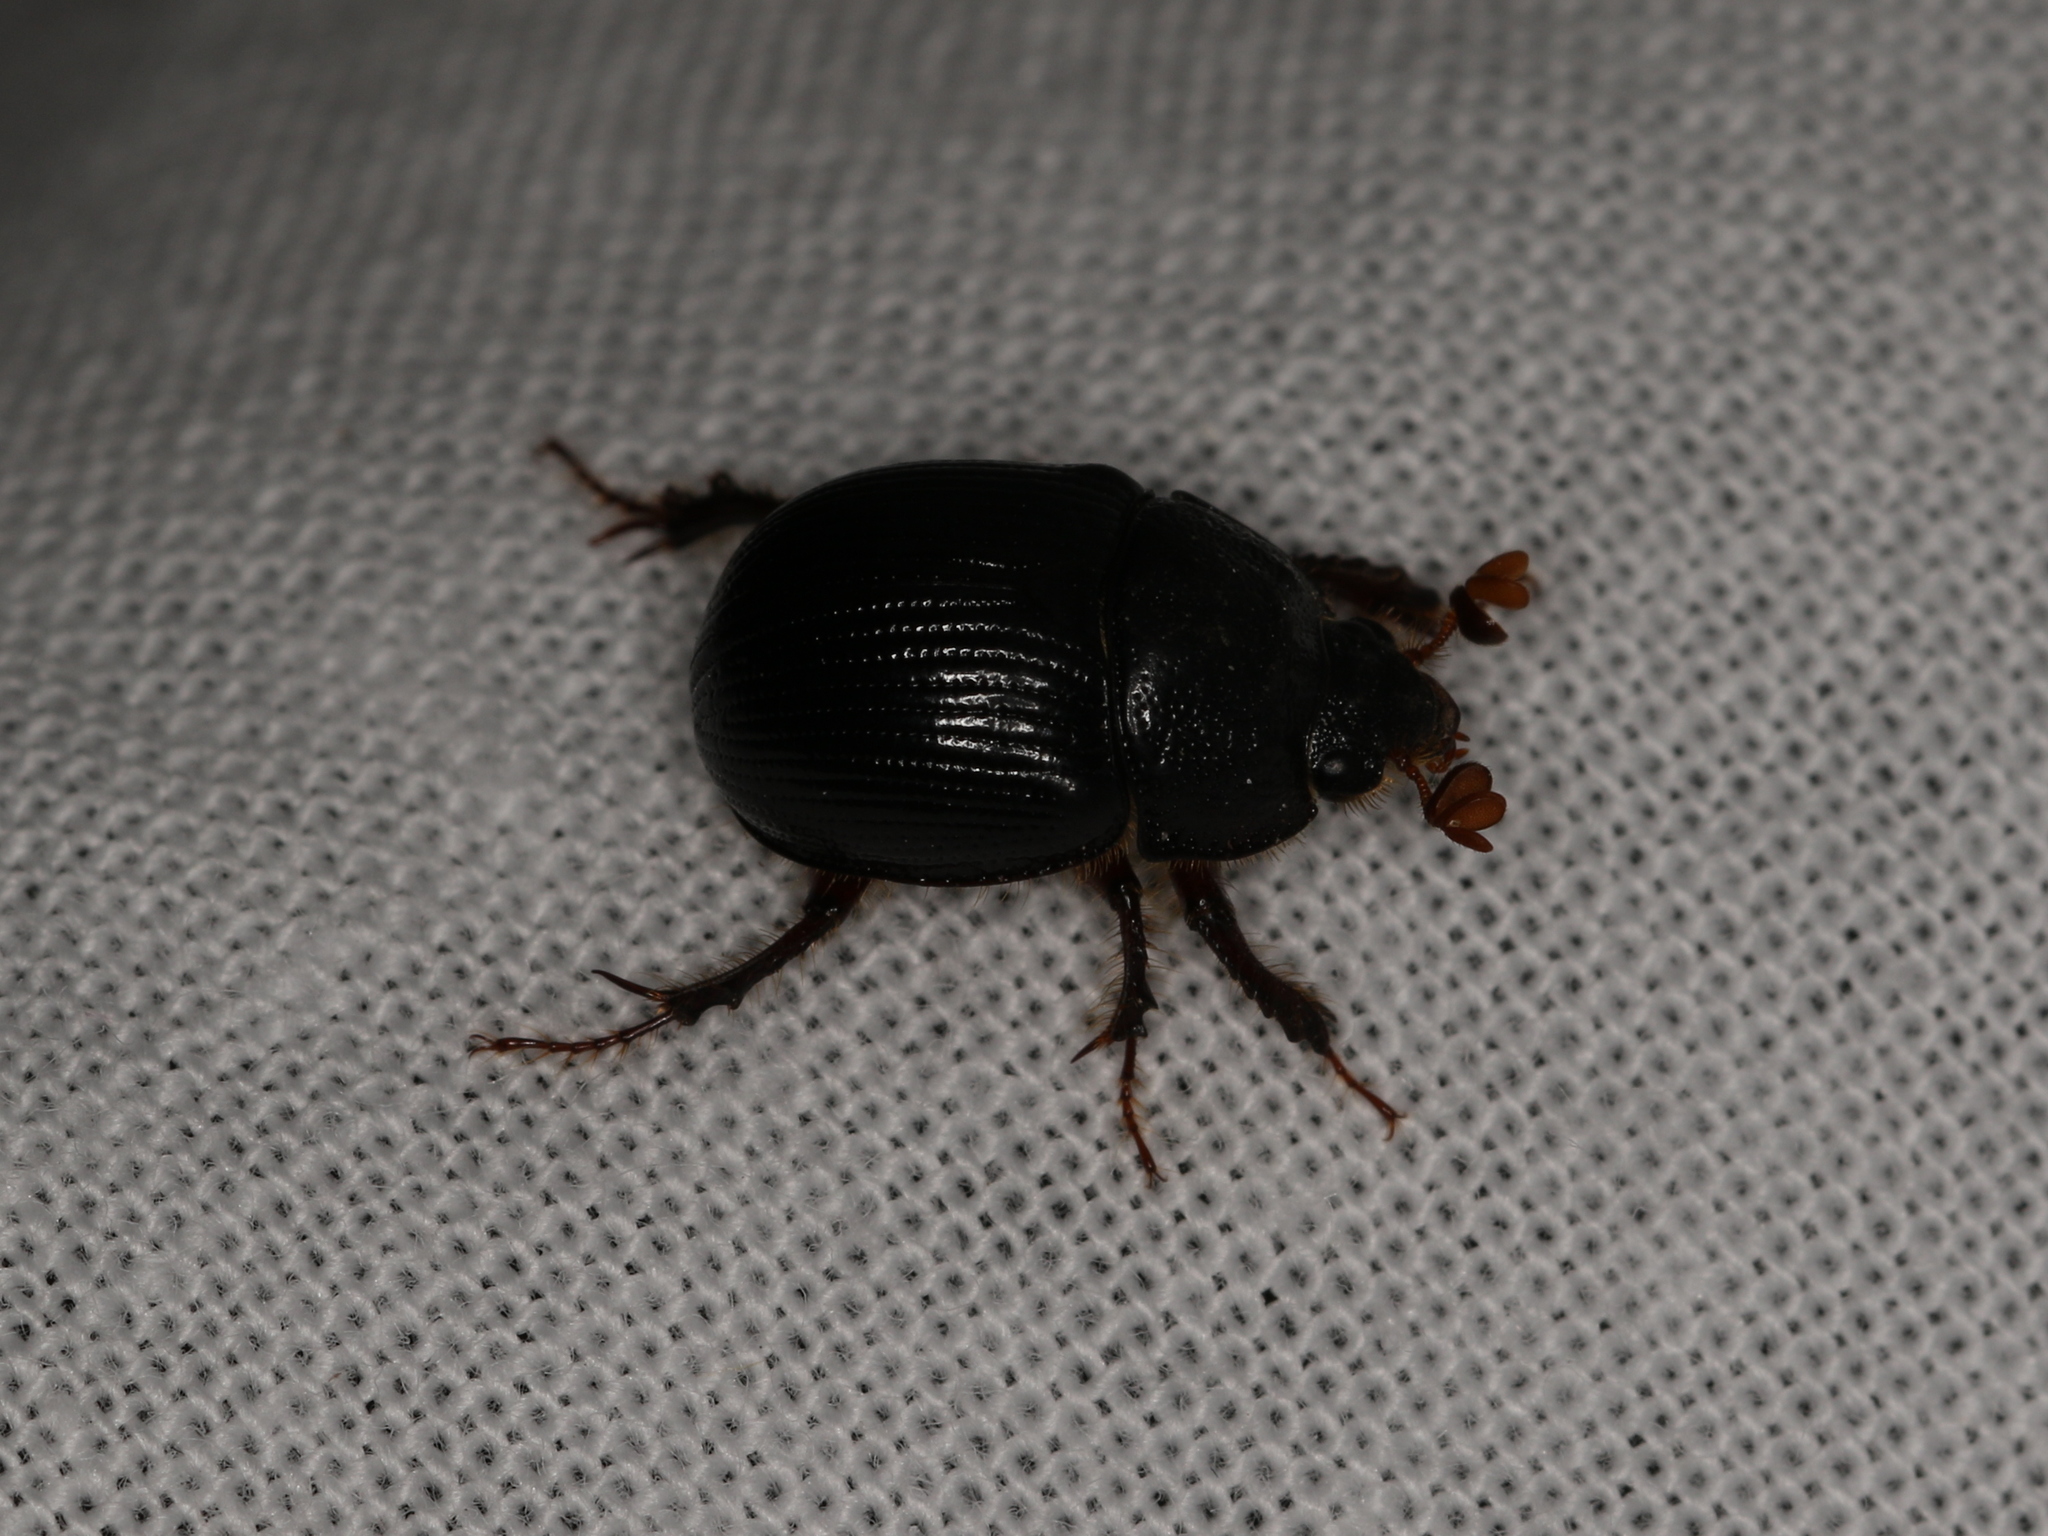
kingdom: Animalia
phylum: Arthropoda
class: Insecta
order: Coleoptera
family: Geotrupidae
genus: Odonteus
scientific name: Odonteus armiger
